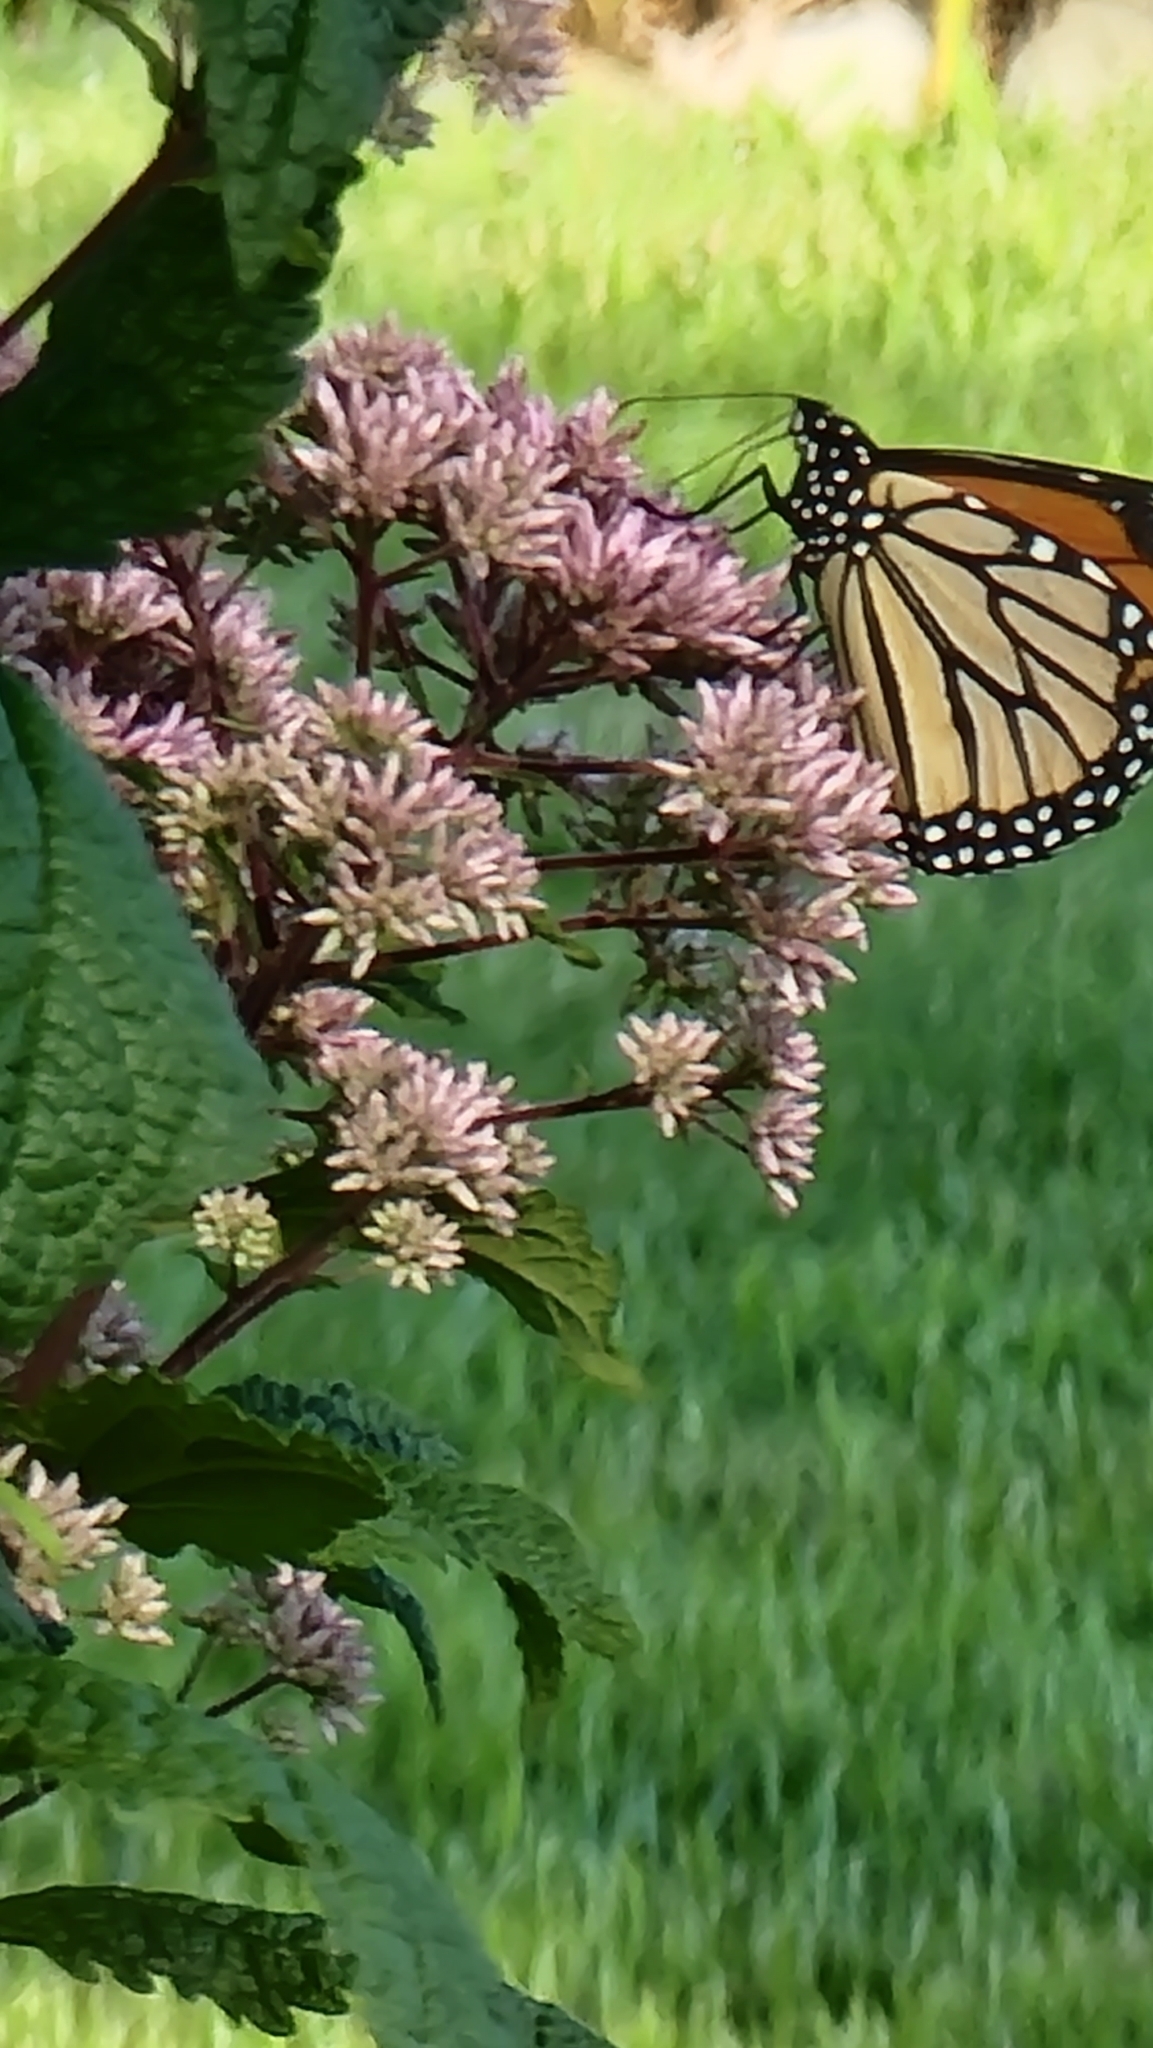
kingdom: Animalia
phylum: Arthropoda
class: Insecta
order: Lepidoptera
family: Nymphalidae
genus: Danaus
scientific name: Danaus plexippus
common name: Monarch
